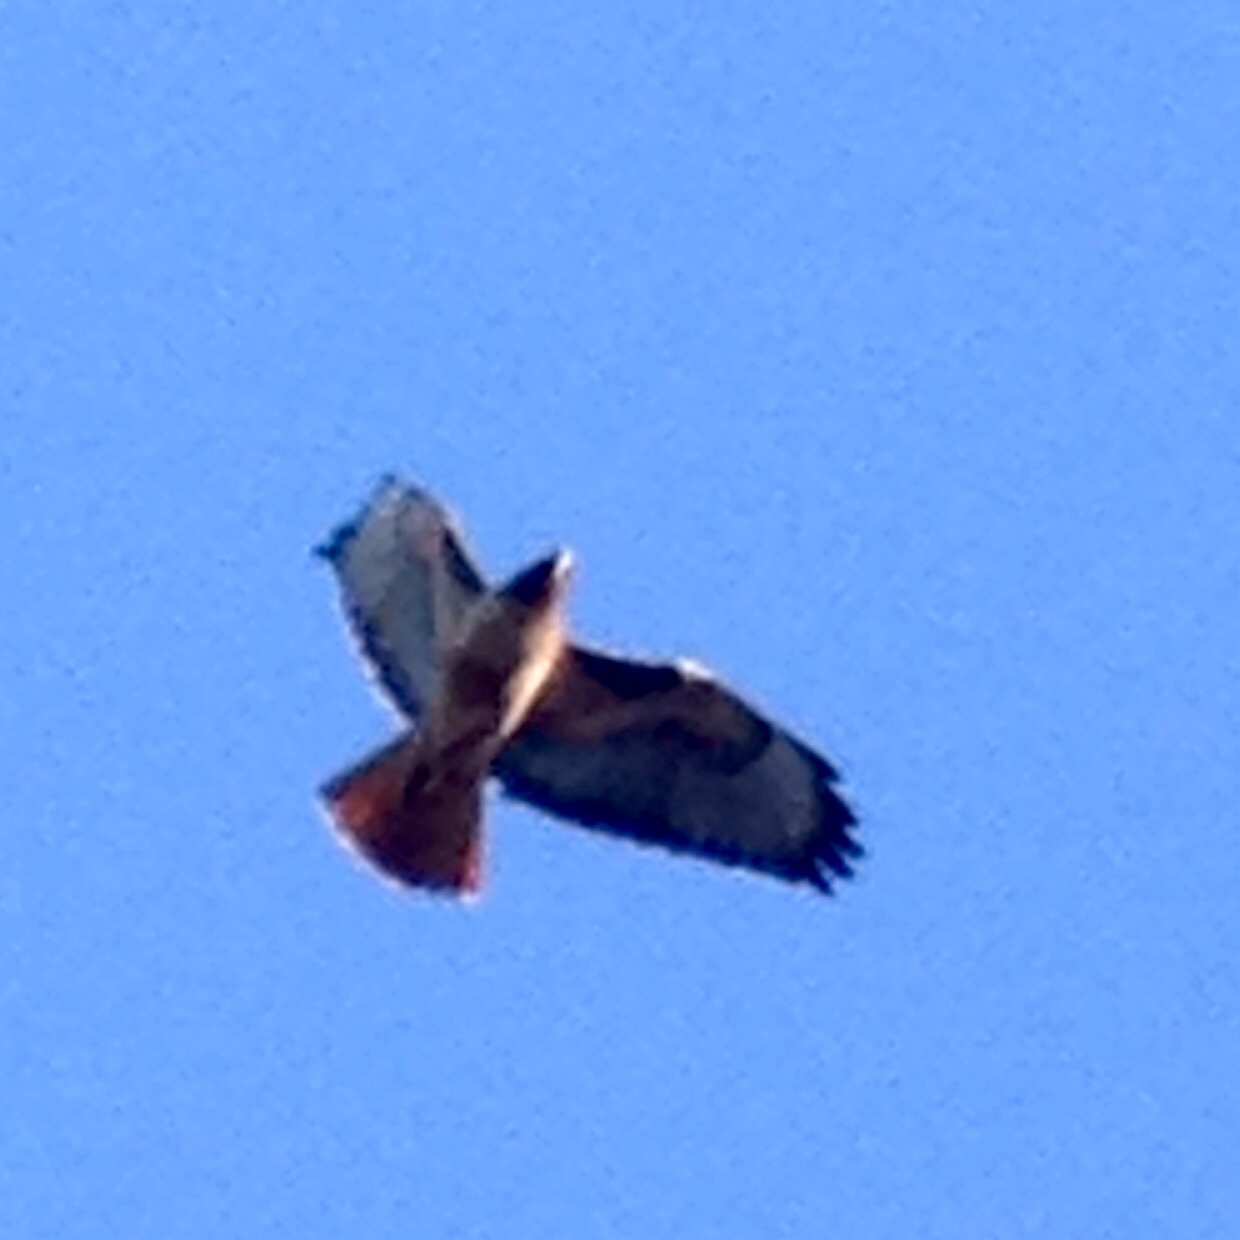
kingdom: Animalia
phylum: Chordata
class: Aves
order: Accipitriformes
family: Accipitridae
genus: Buteo
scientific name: Buteo jamaicensis
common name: Red-tailed hawk
